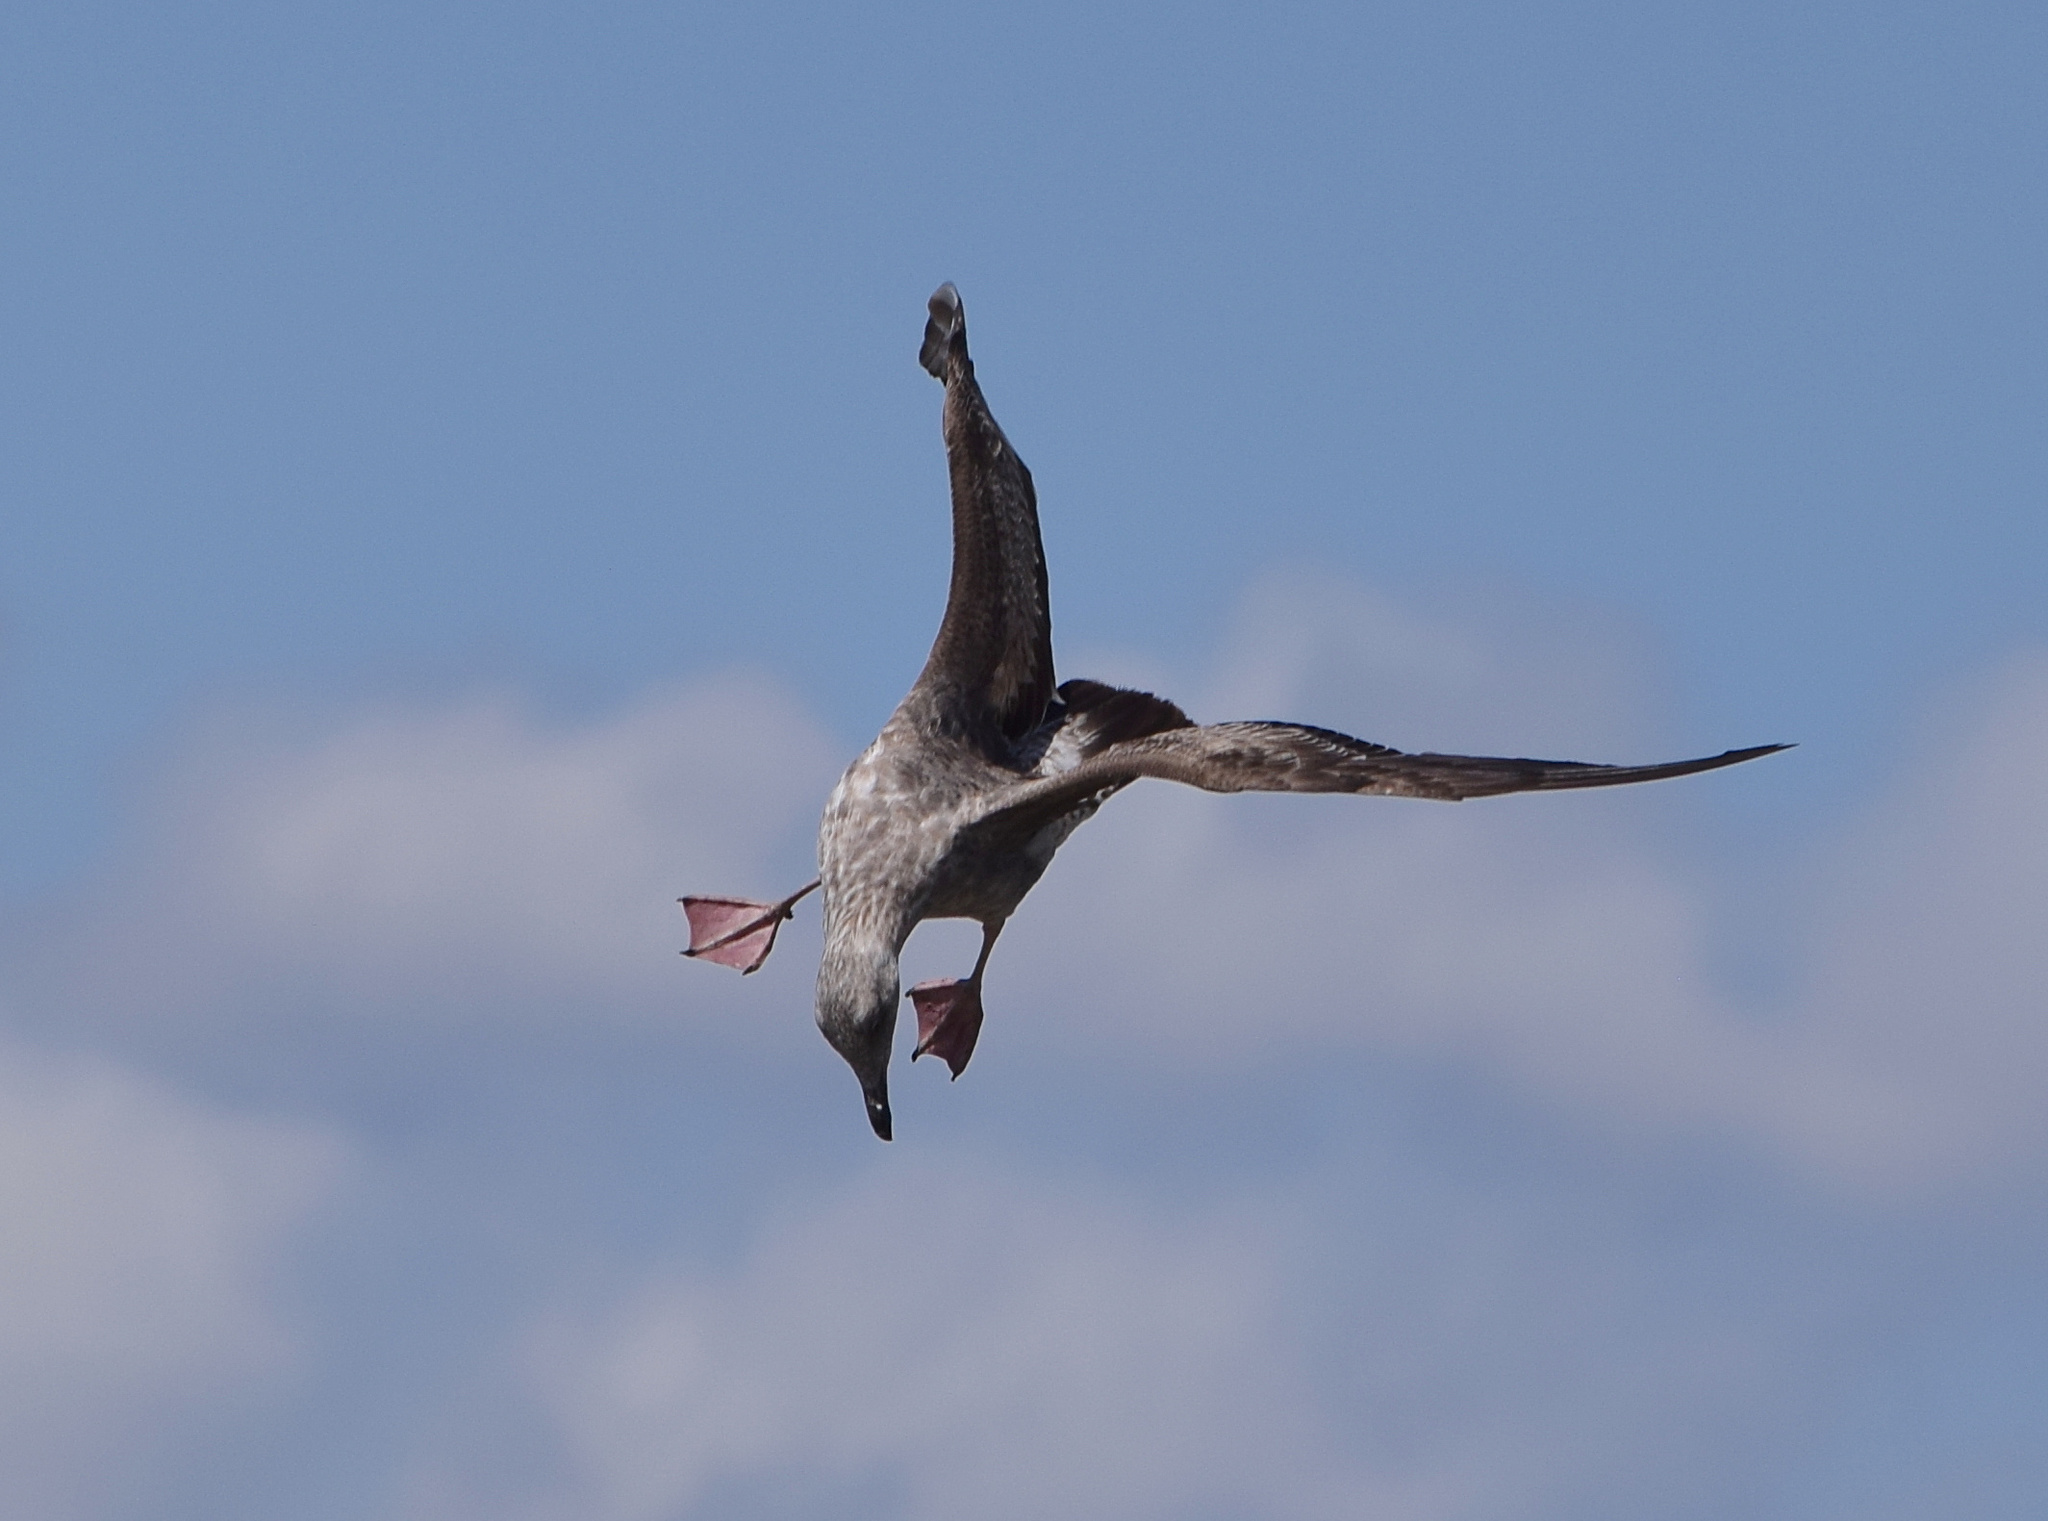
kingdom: Animalia
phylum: Chordata
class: Aves
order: Charadriiformes
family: Laridae
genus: Larus
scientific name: Larus occidentalis
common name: Western gull
